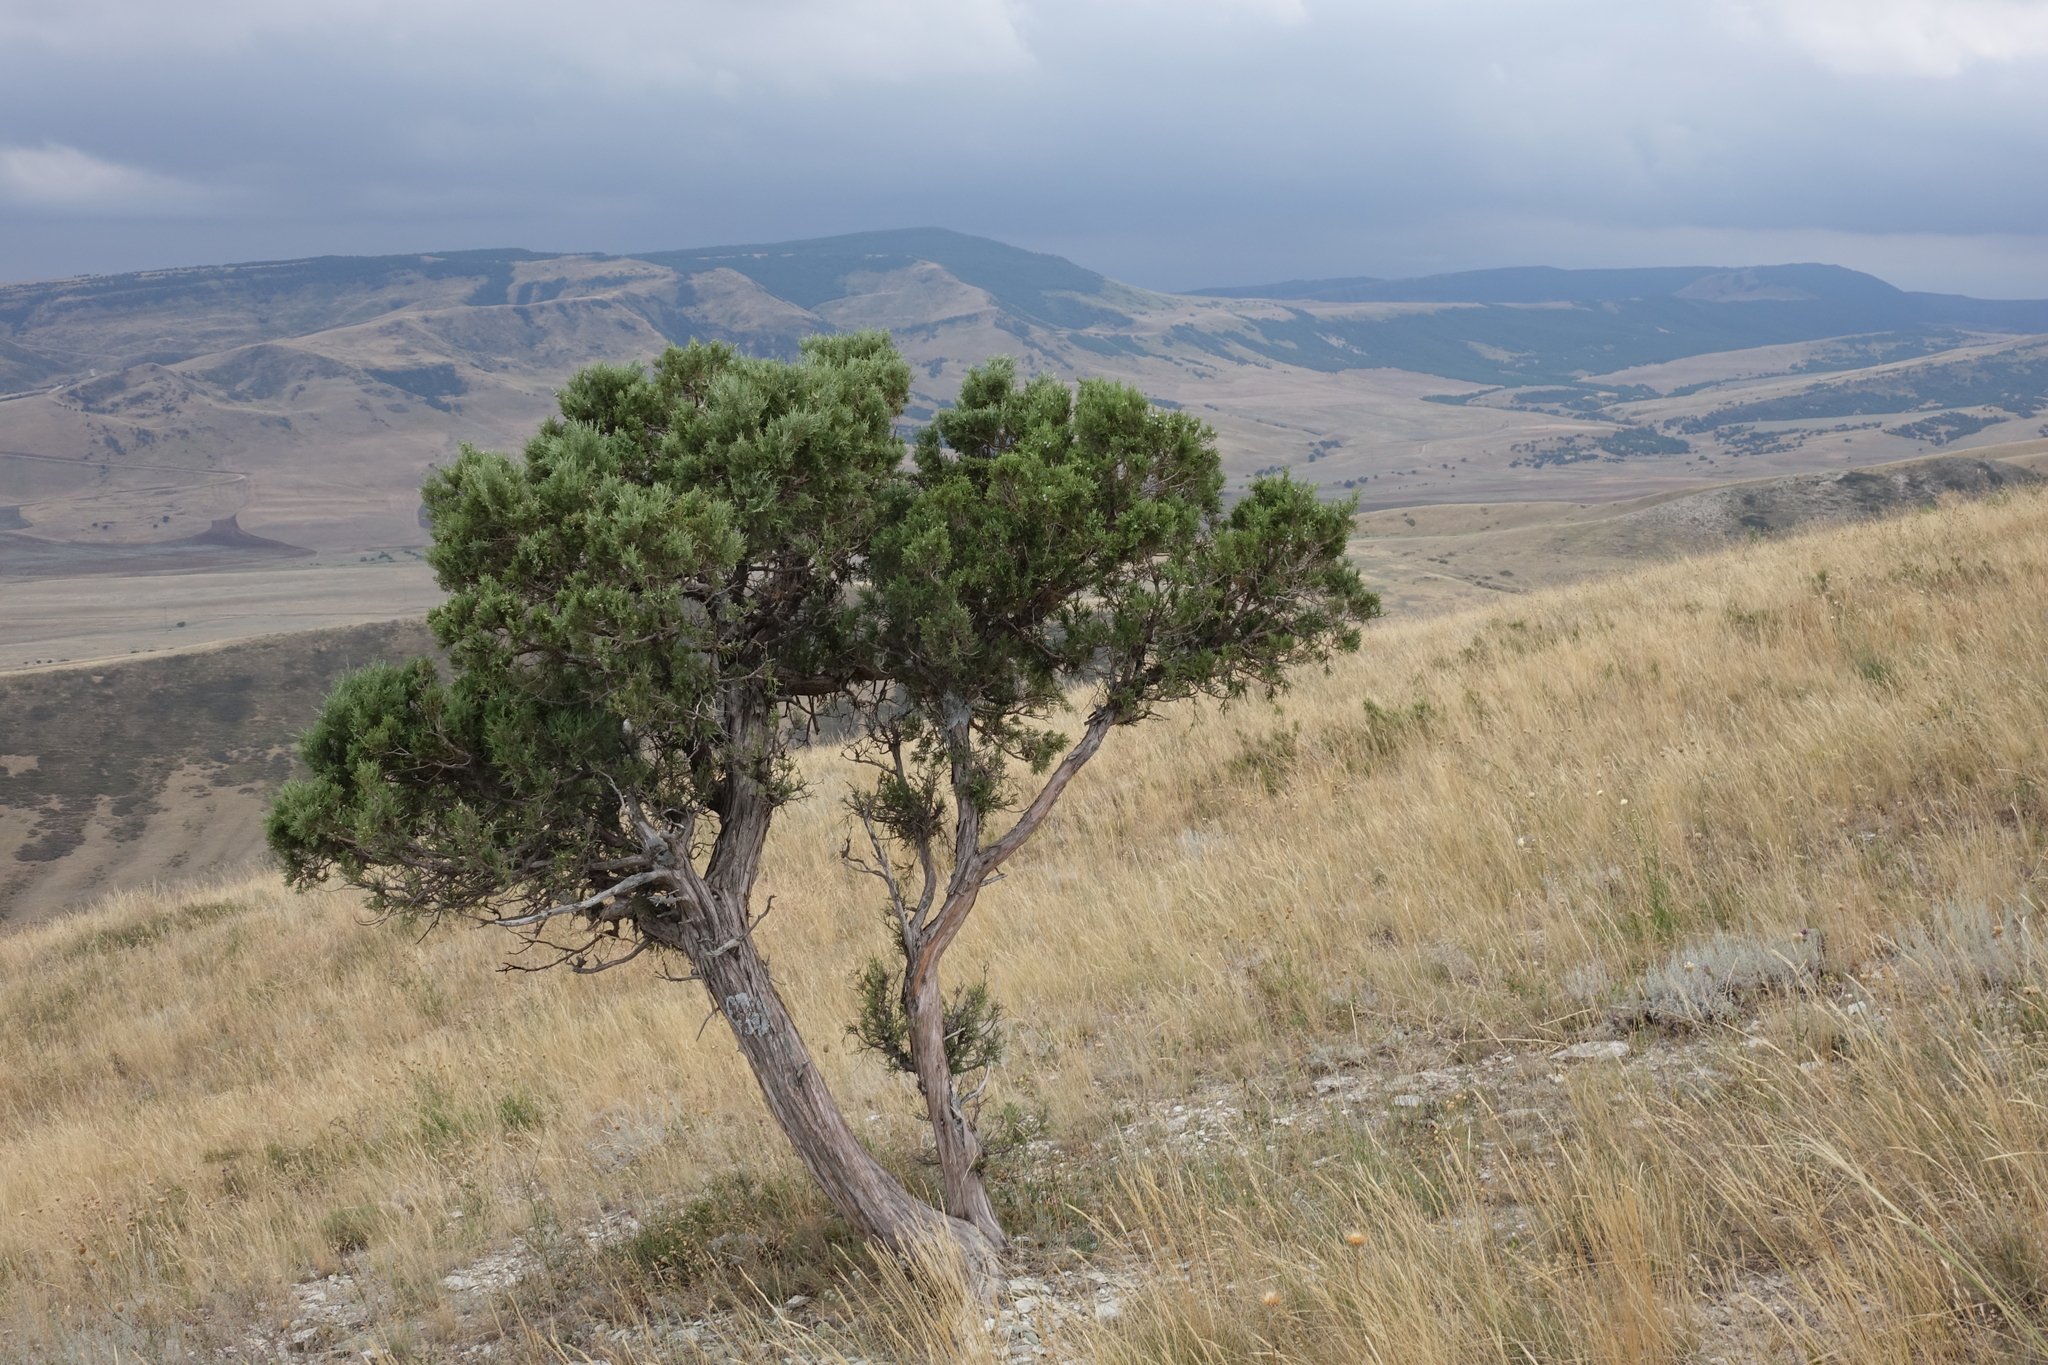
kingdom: Plantae
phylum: Tracheophyta
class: Pinopsida
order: Pinales
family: Cupressaceae
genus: Juniperus
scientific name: Juniperus excelsa
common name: Crimean juniper
